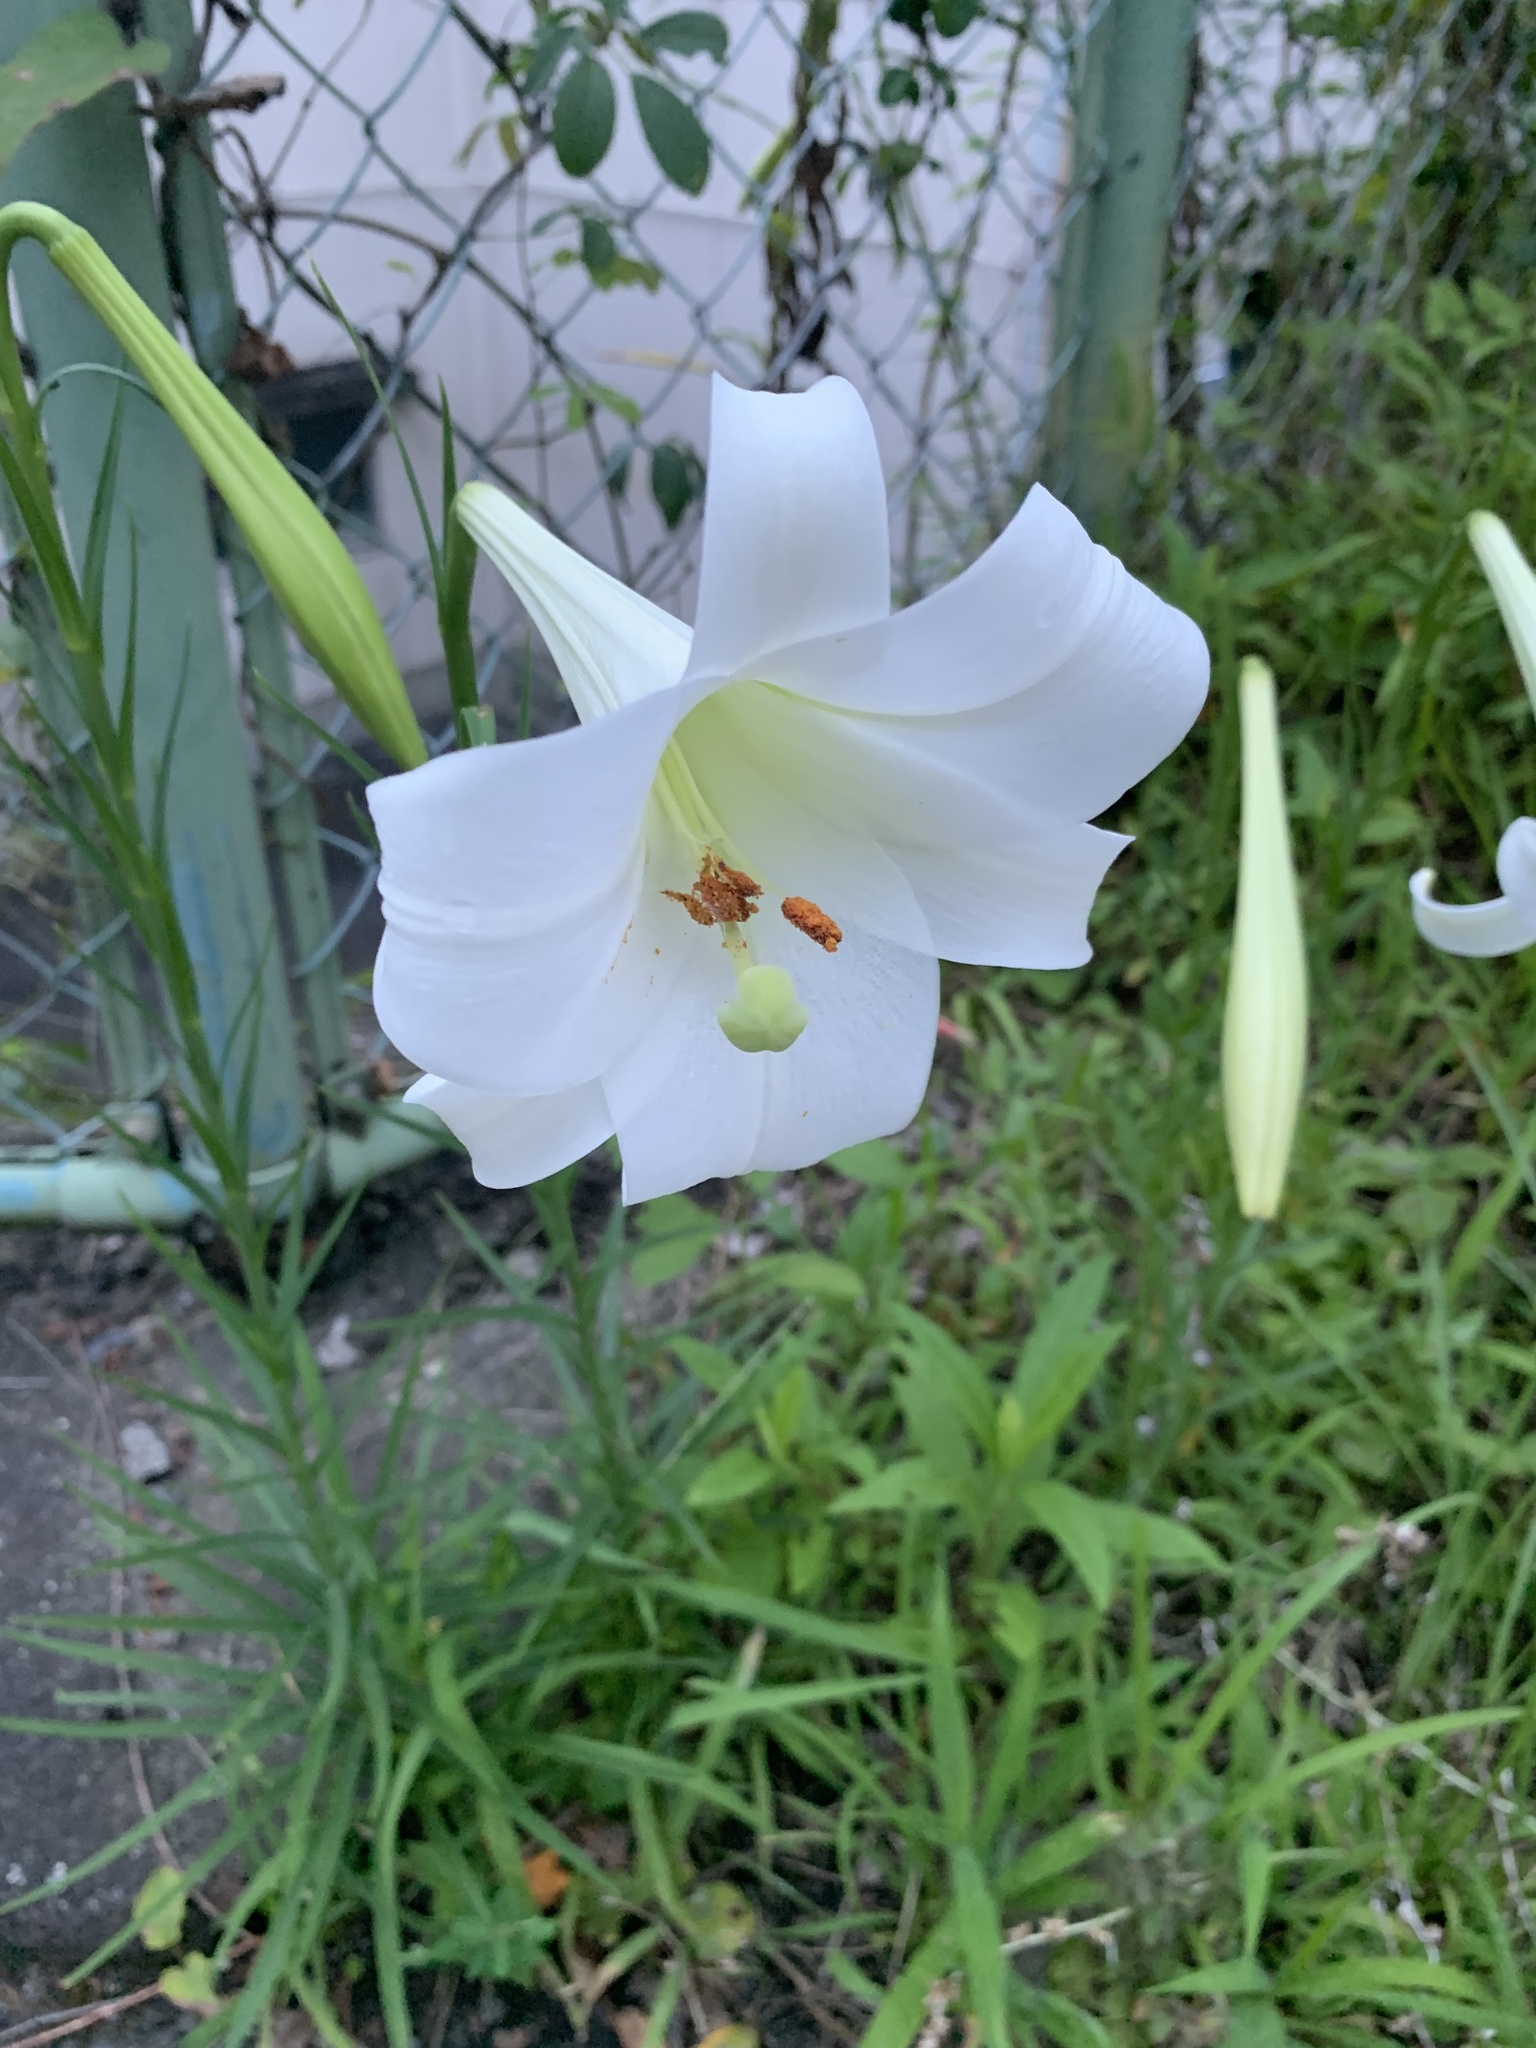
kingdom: Plantae
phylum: Tracheophyta
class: Liliopsida
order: Liliales
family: Liliaceae
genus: Lilium
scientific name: Lilium formosanum
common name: Formosa lily
